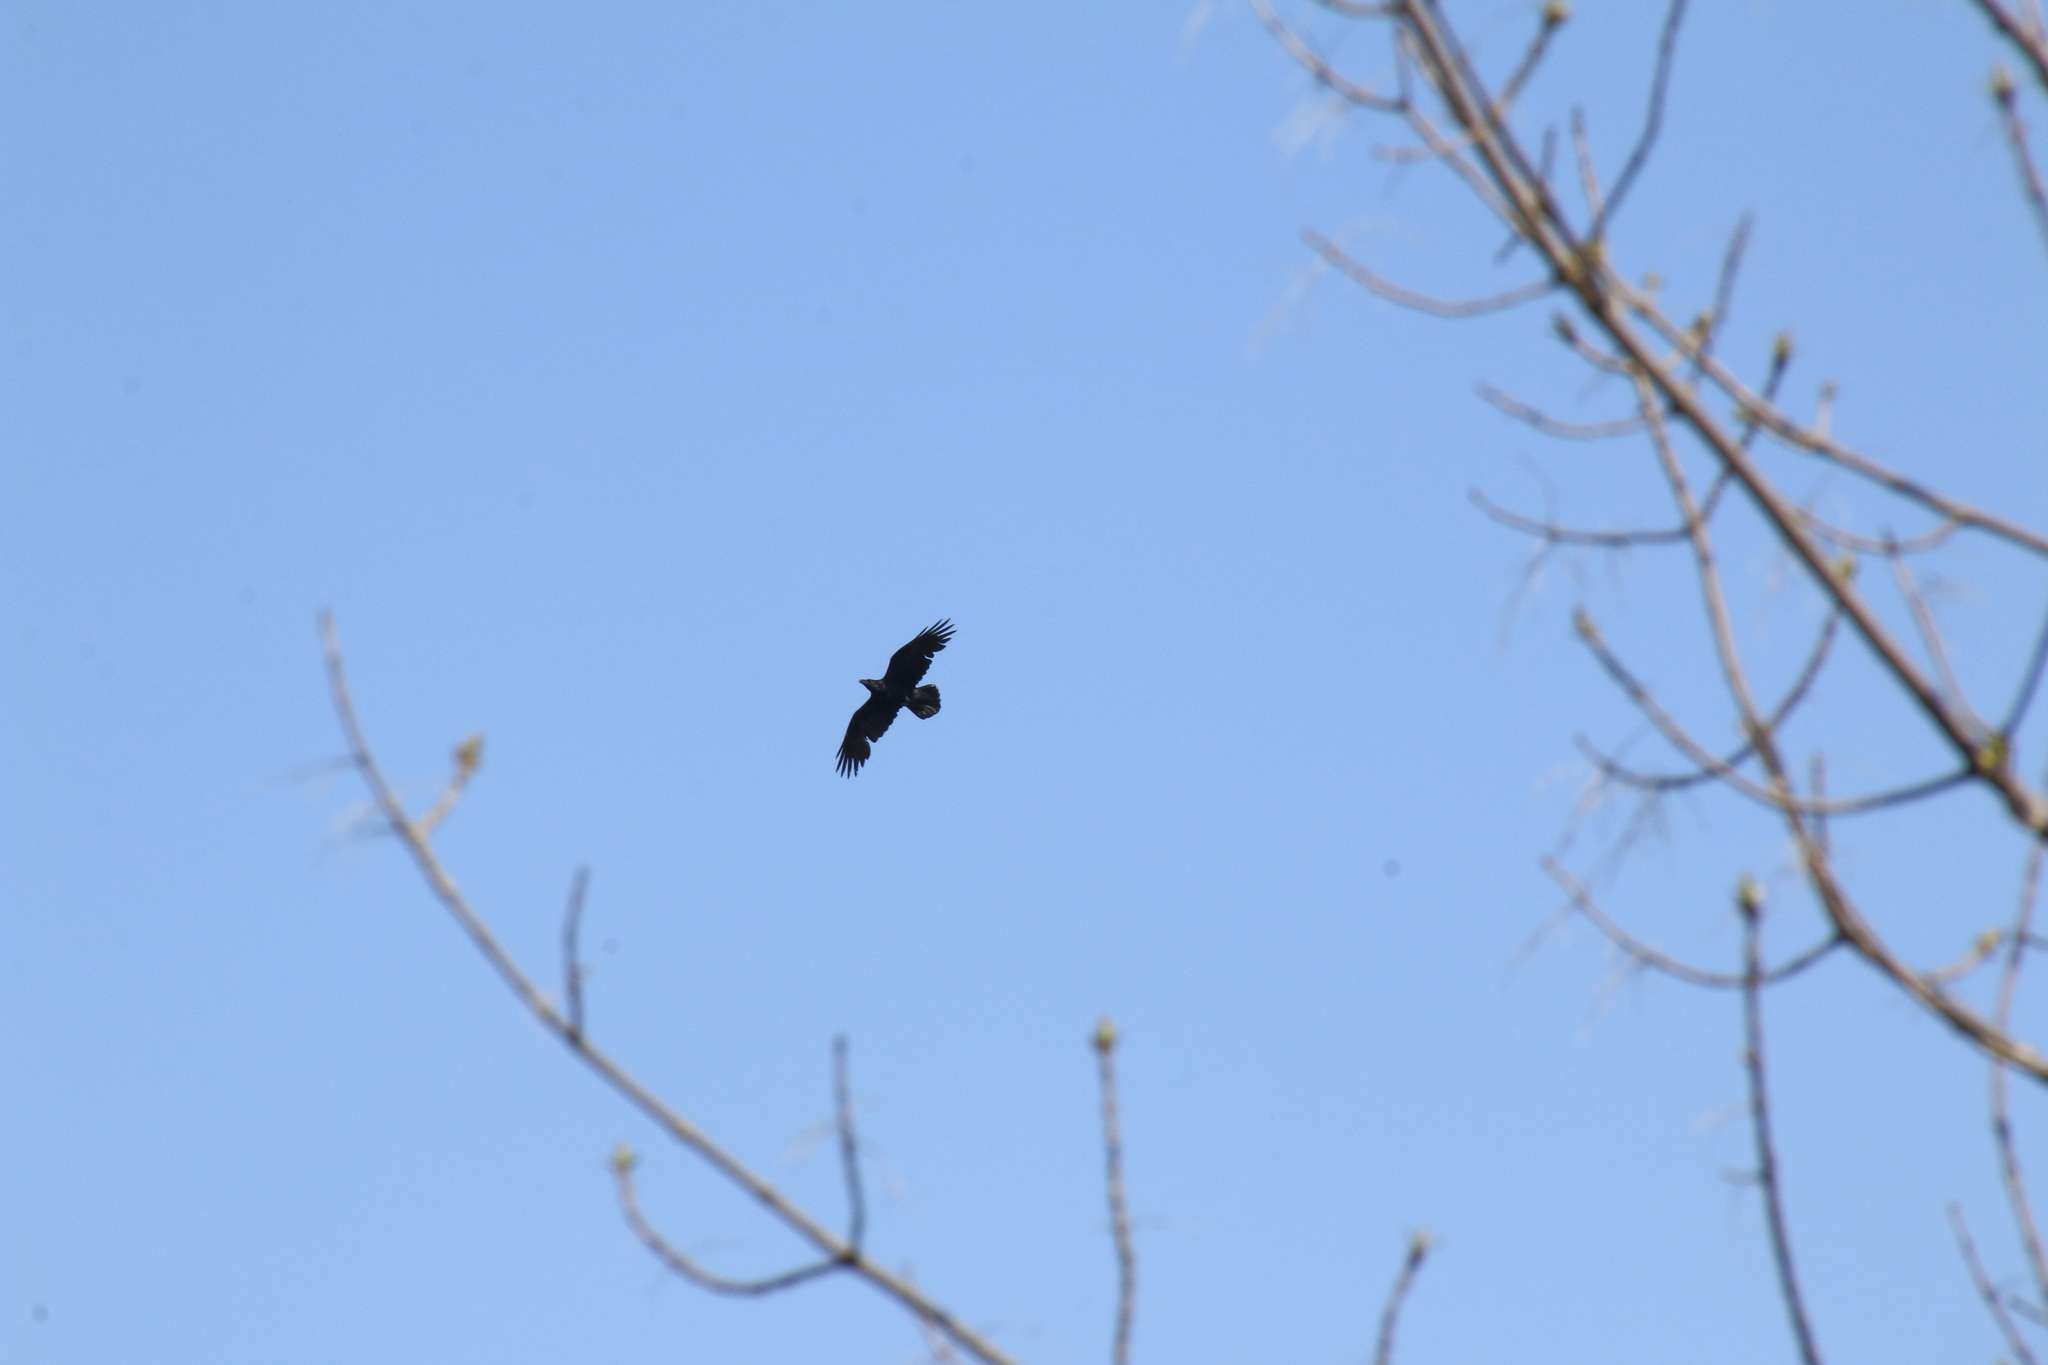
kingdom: Animalia
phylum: Chordata
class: Aves
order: Passeriformes
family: Corvidae
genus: Corvus
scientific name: Corvus corax
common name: Common raven
